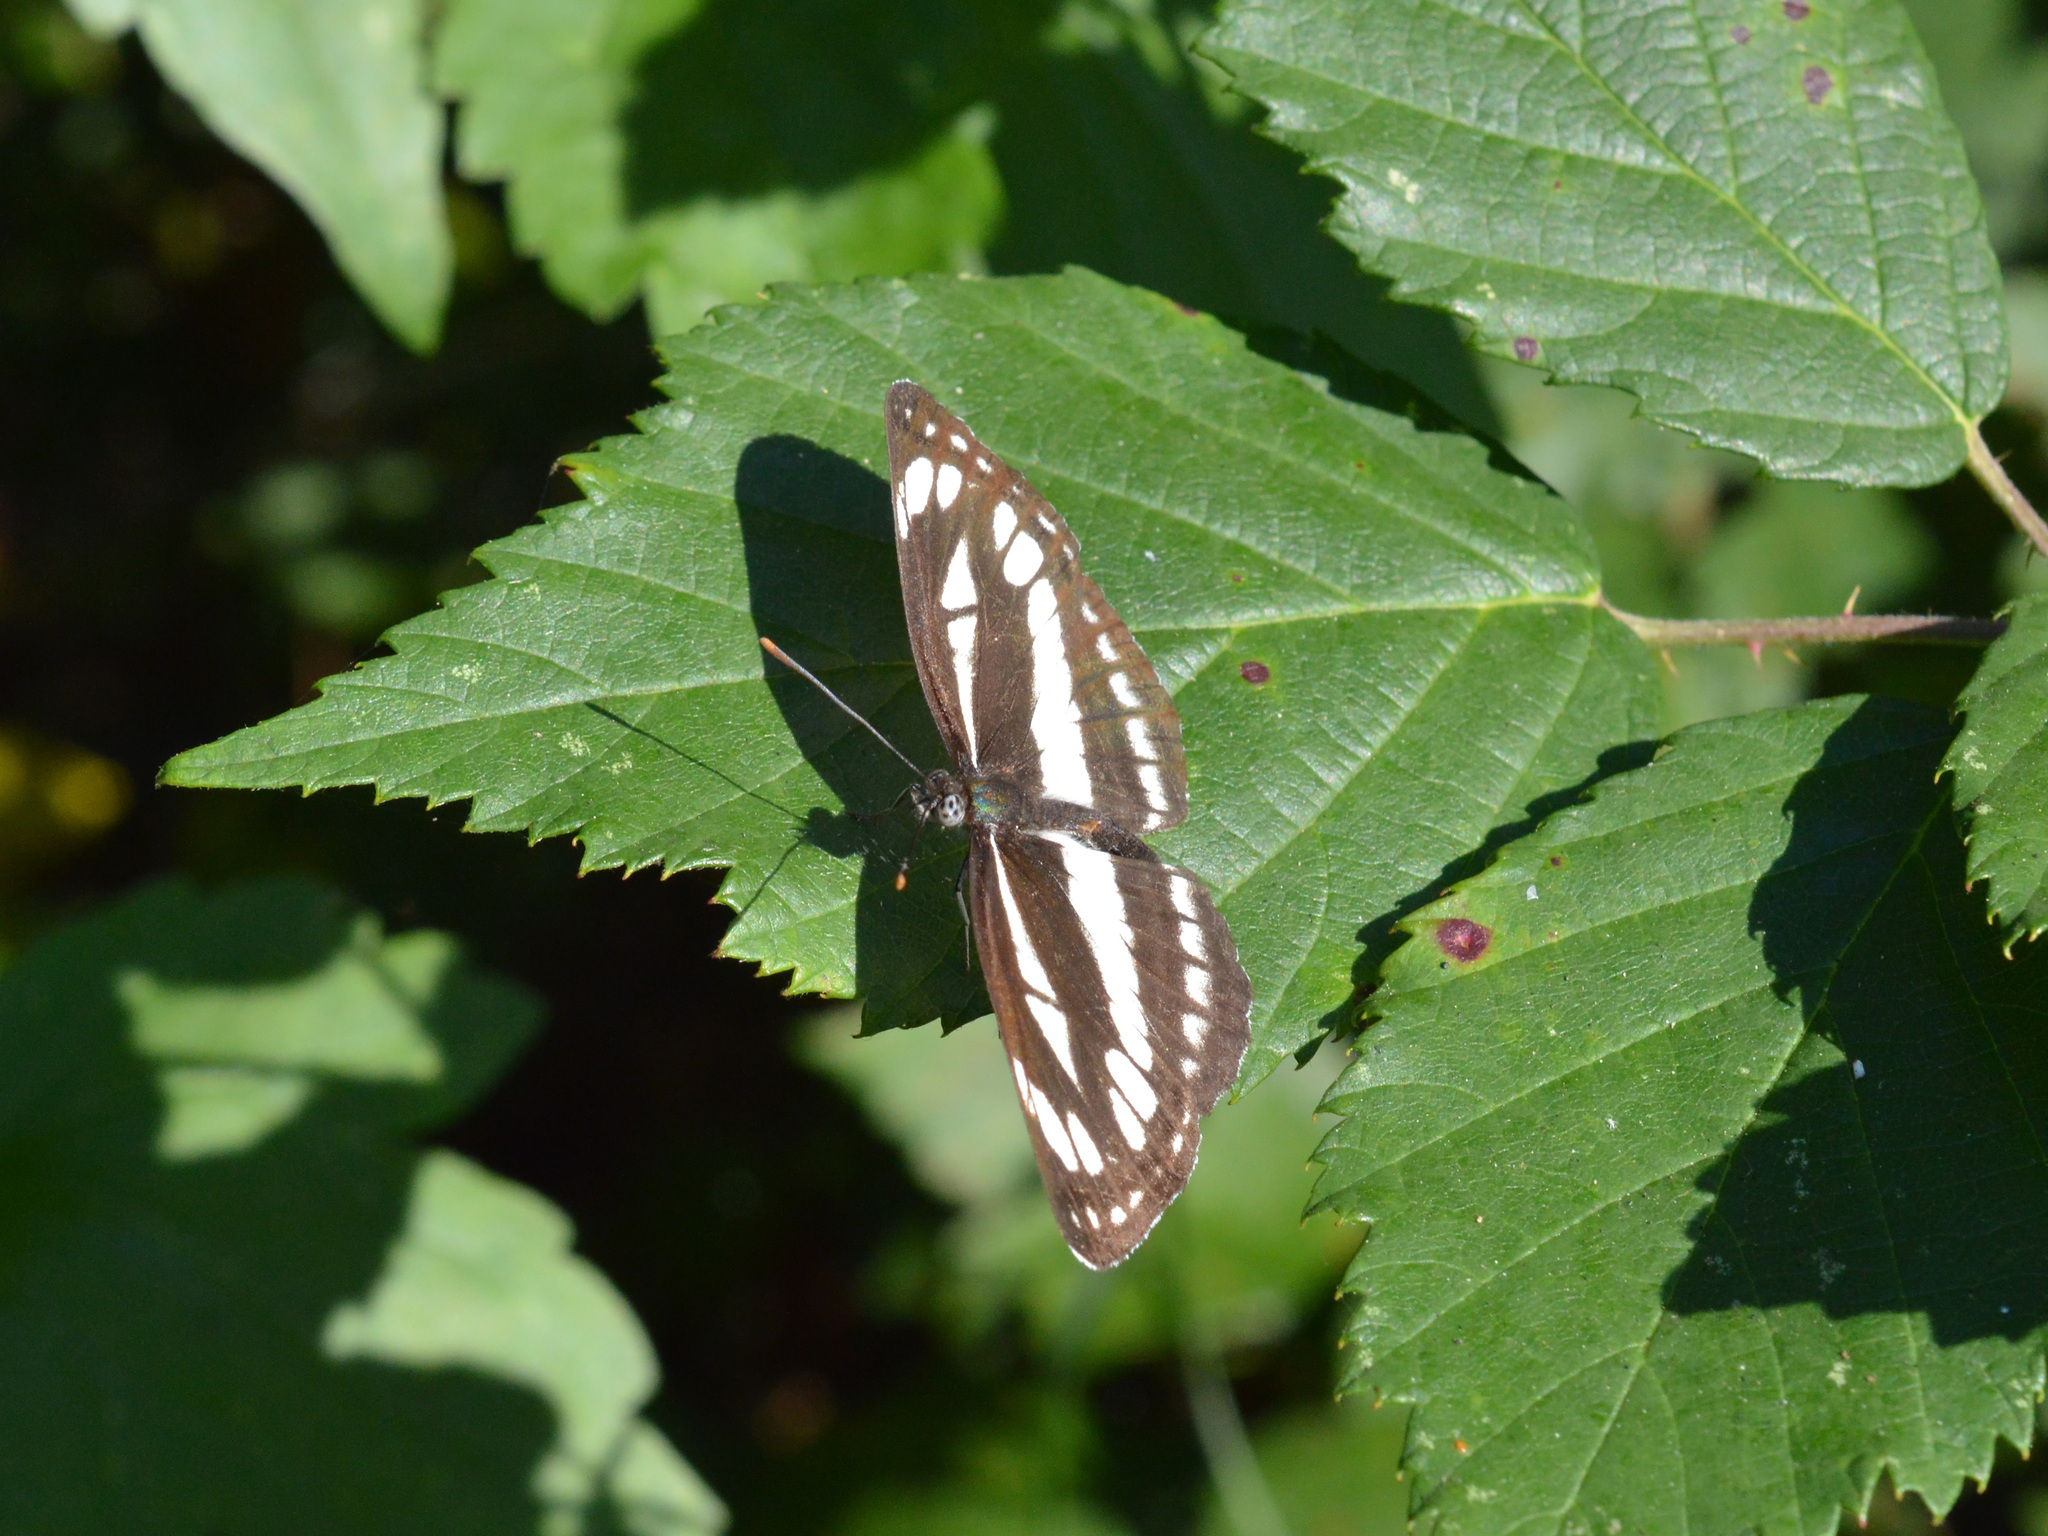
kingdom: Animalia
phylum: Arthropoda
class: Insecta
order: Lepidoptera
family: Nymphalidae
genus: Neptis
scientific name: Neptis sappho
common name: Common glider
